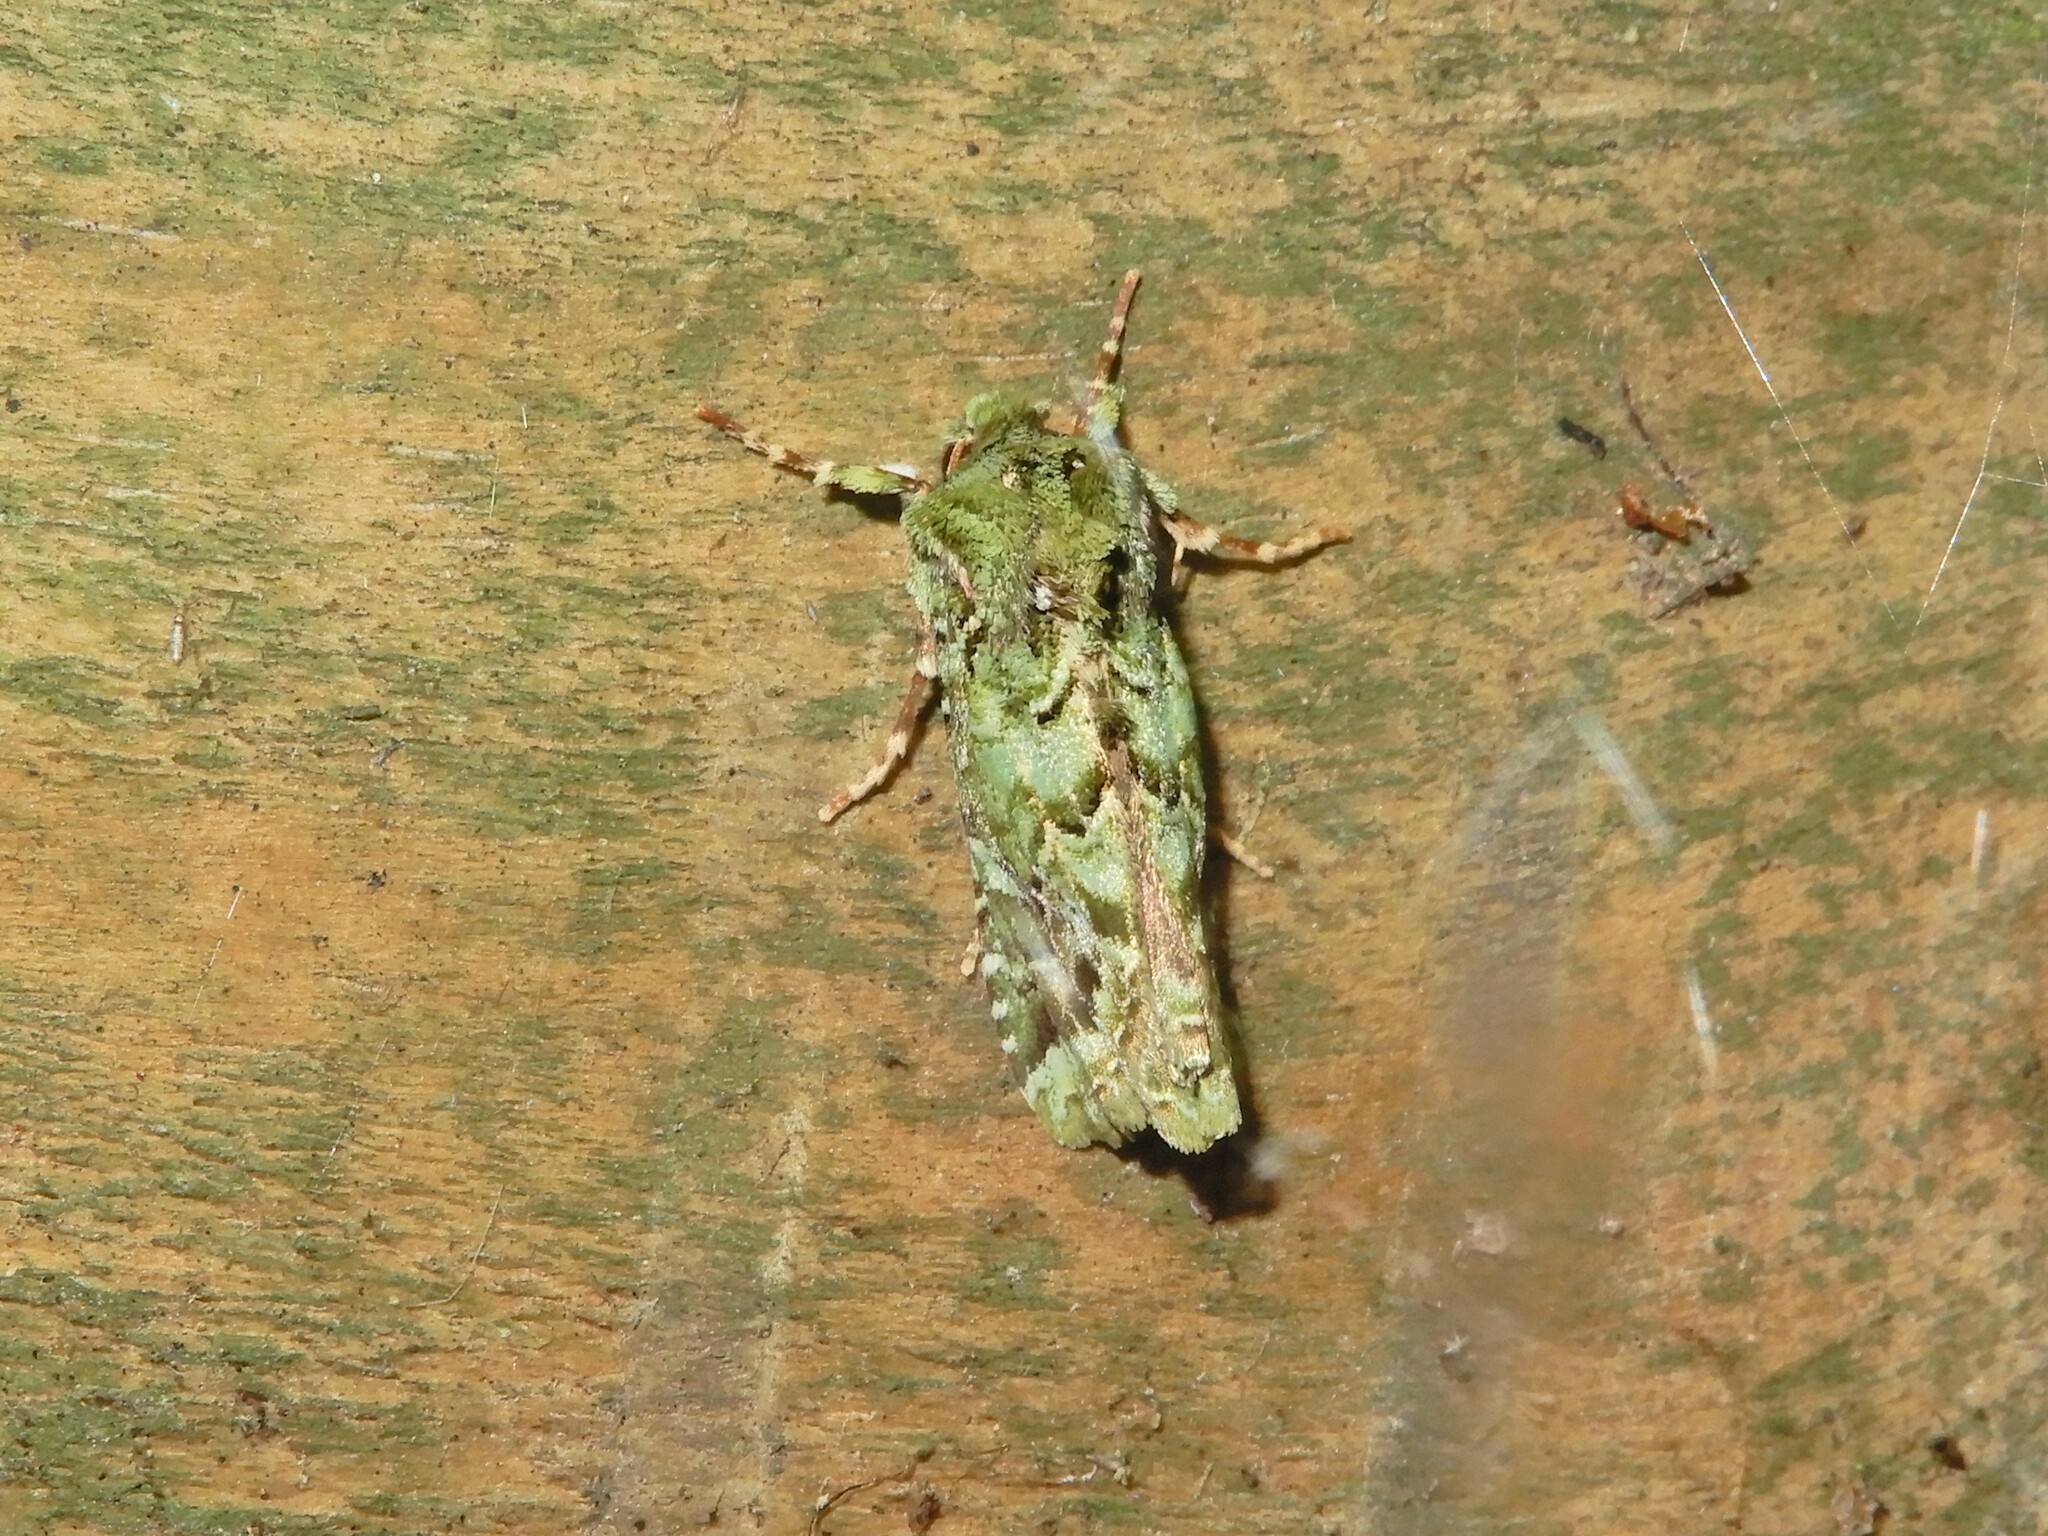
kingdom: Animalia
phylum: Arthropoda
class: Insecta
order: Lepidoptera
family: Noctuidae
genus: Feredayia
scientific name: Feredayia grammosa
